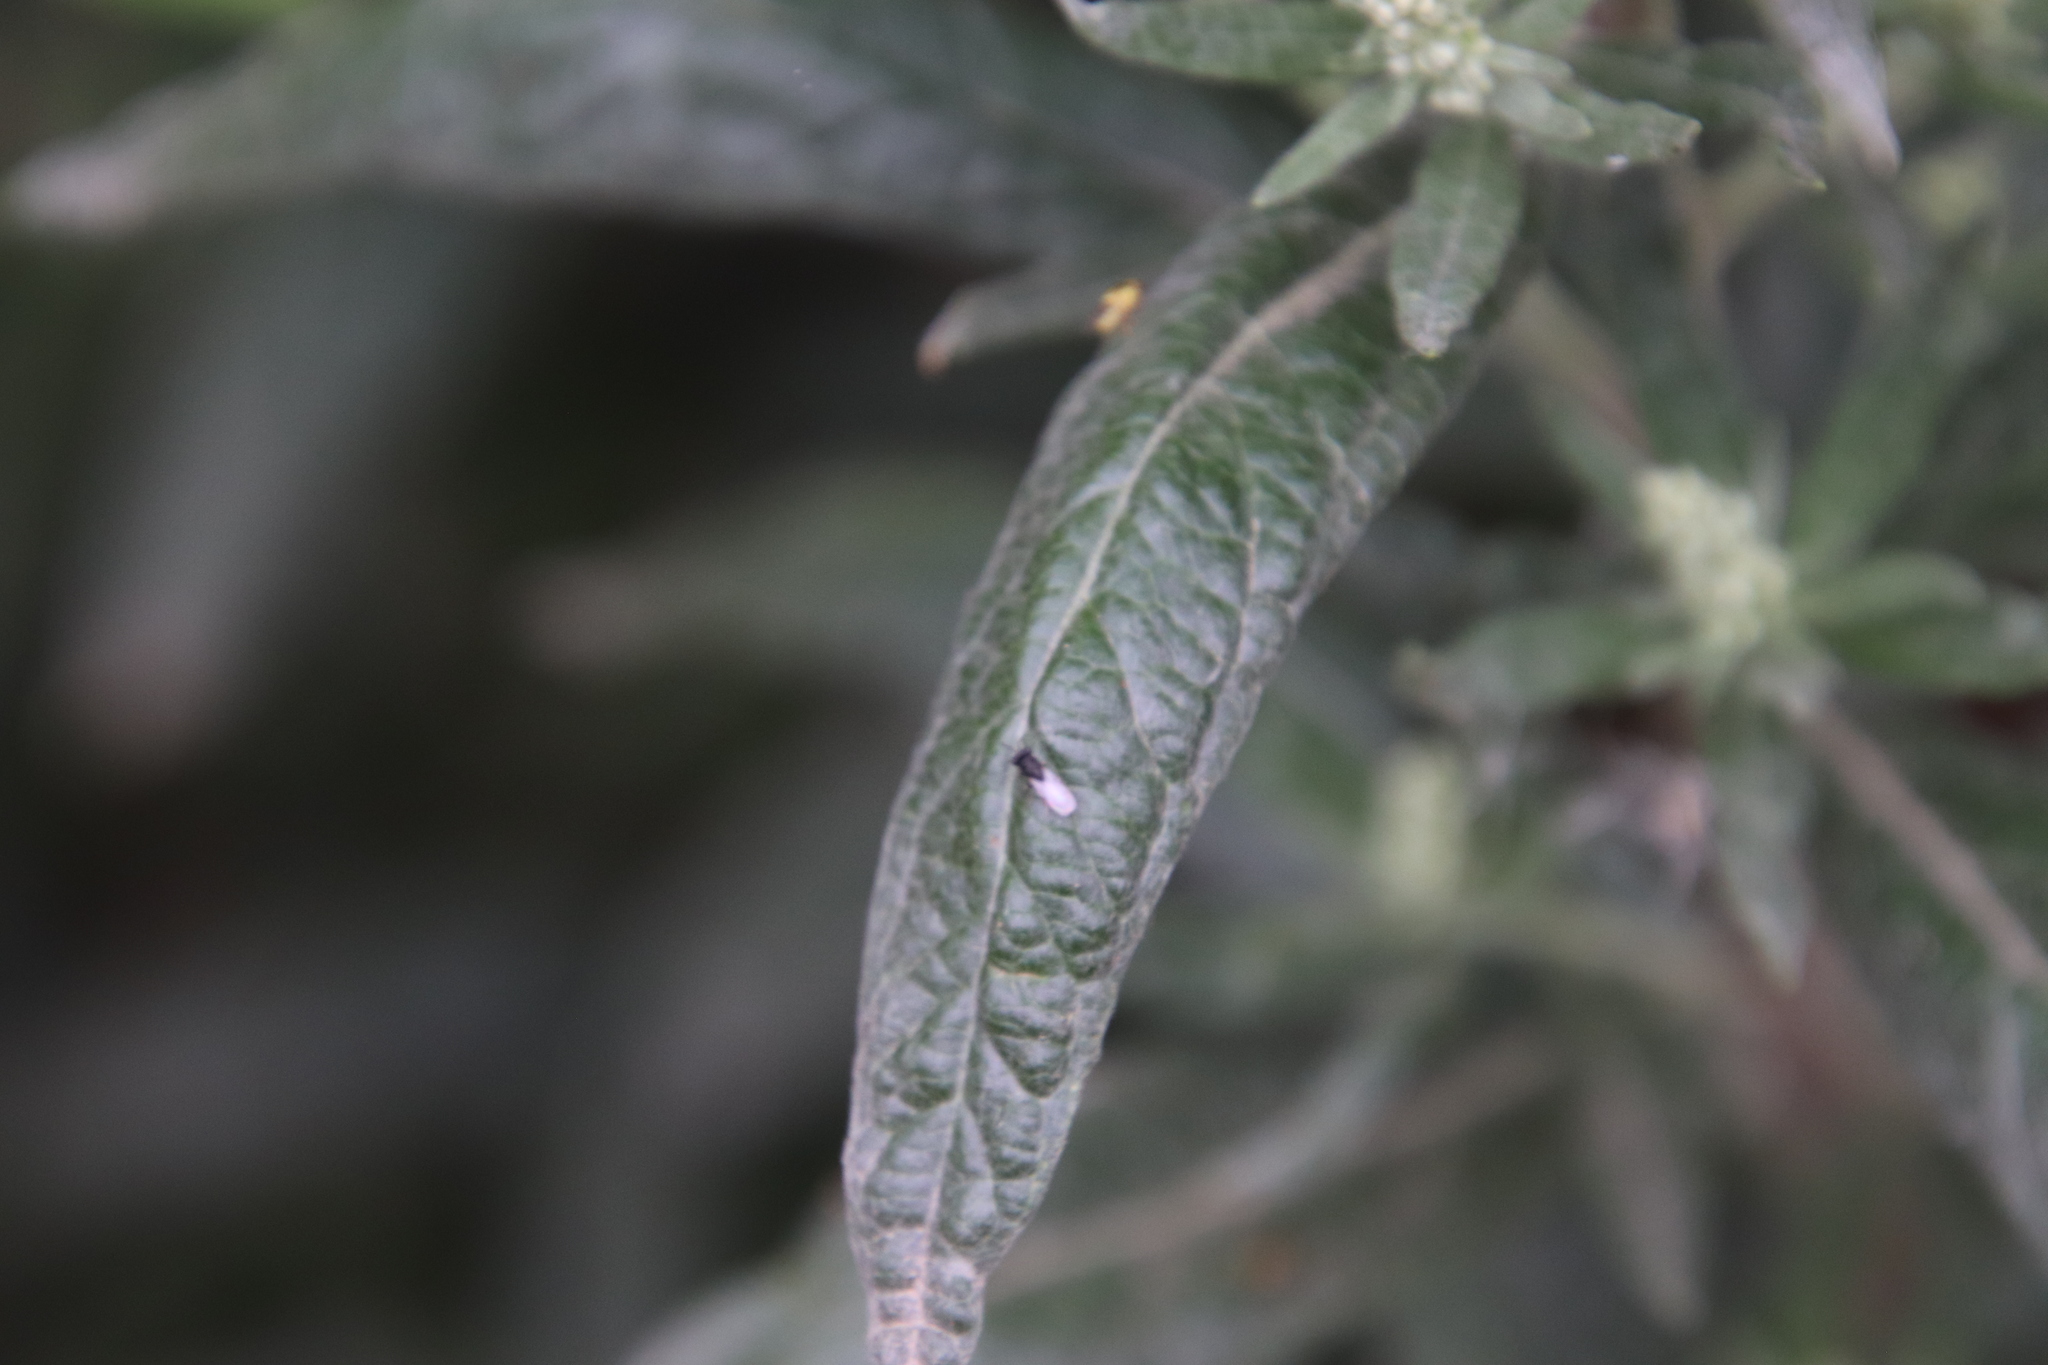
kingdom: Plantae
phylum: Tracheophyta
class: Magnoliopsida
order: Asterales
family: Asteraceae
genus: Artemisia
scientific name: Artemisia douglasiana
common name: Northwest mugwort
